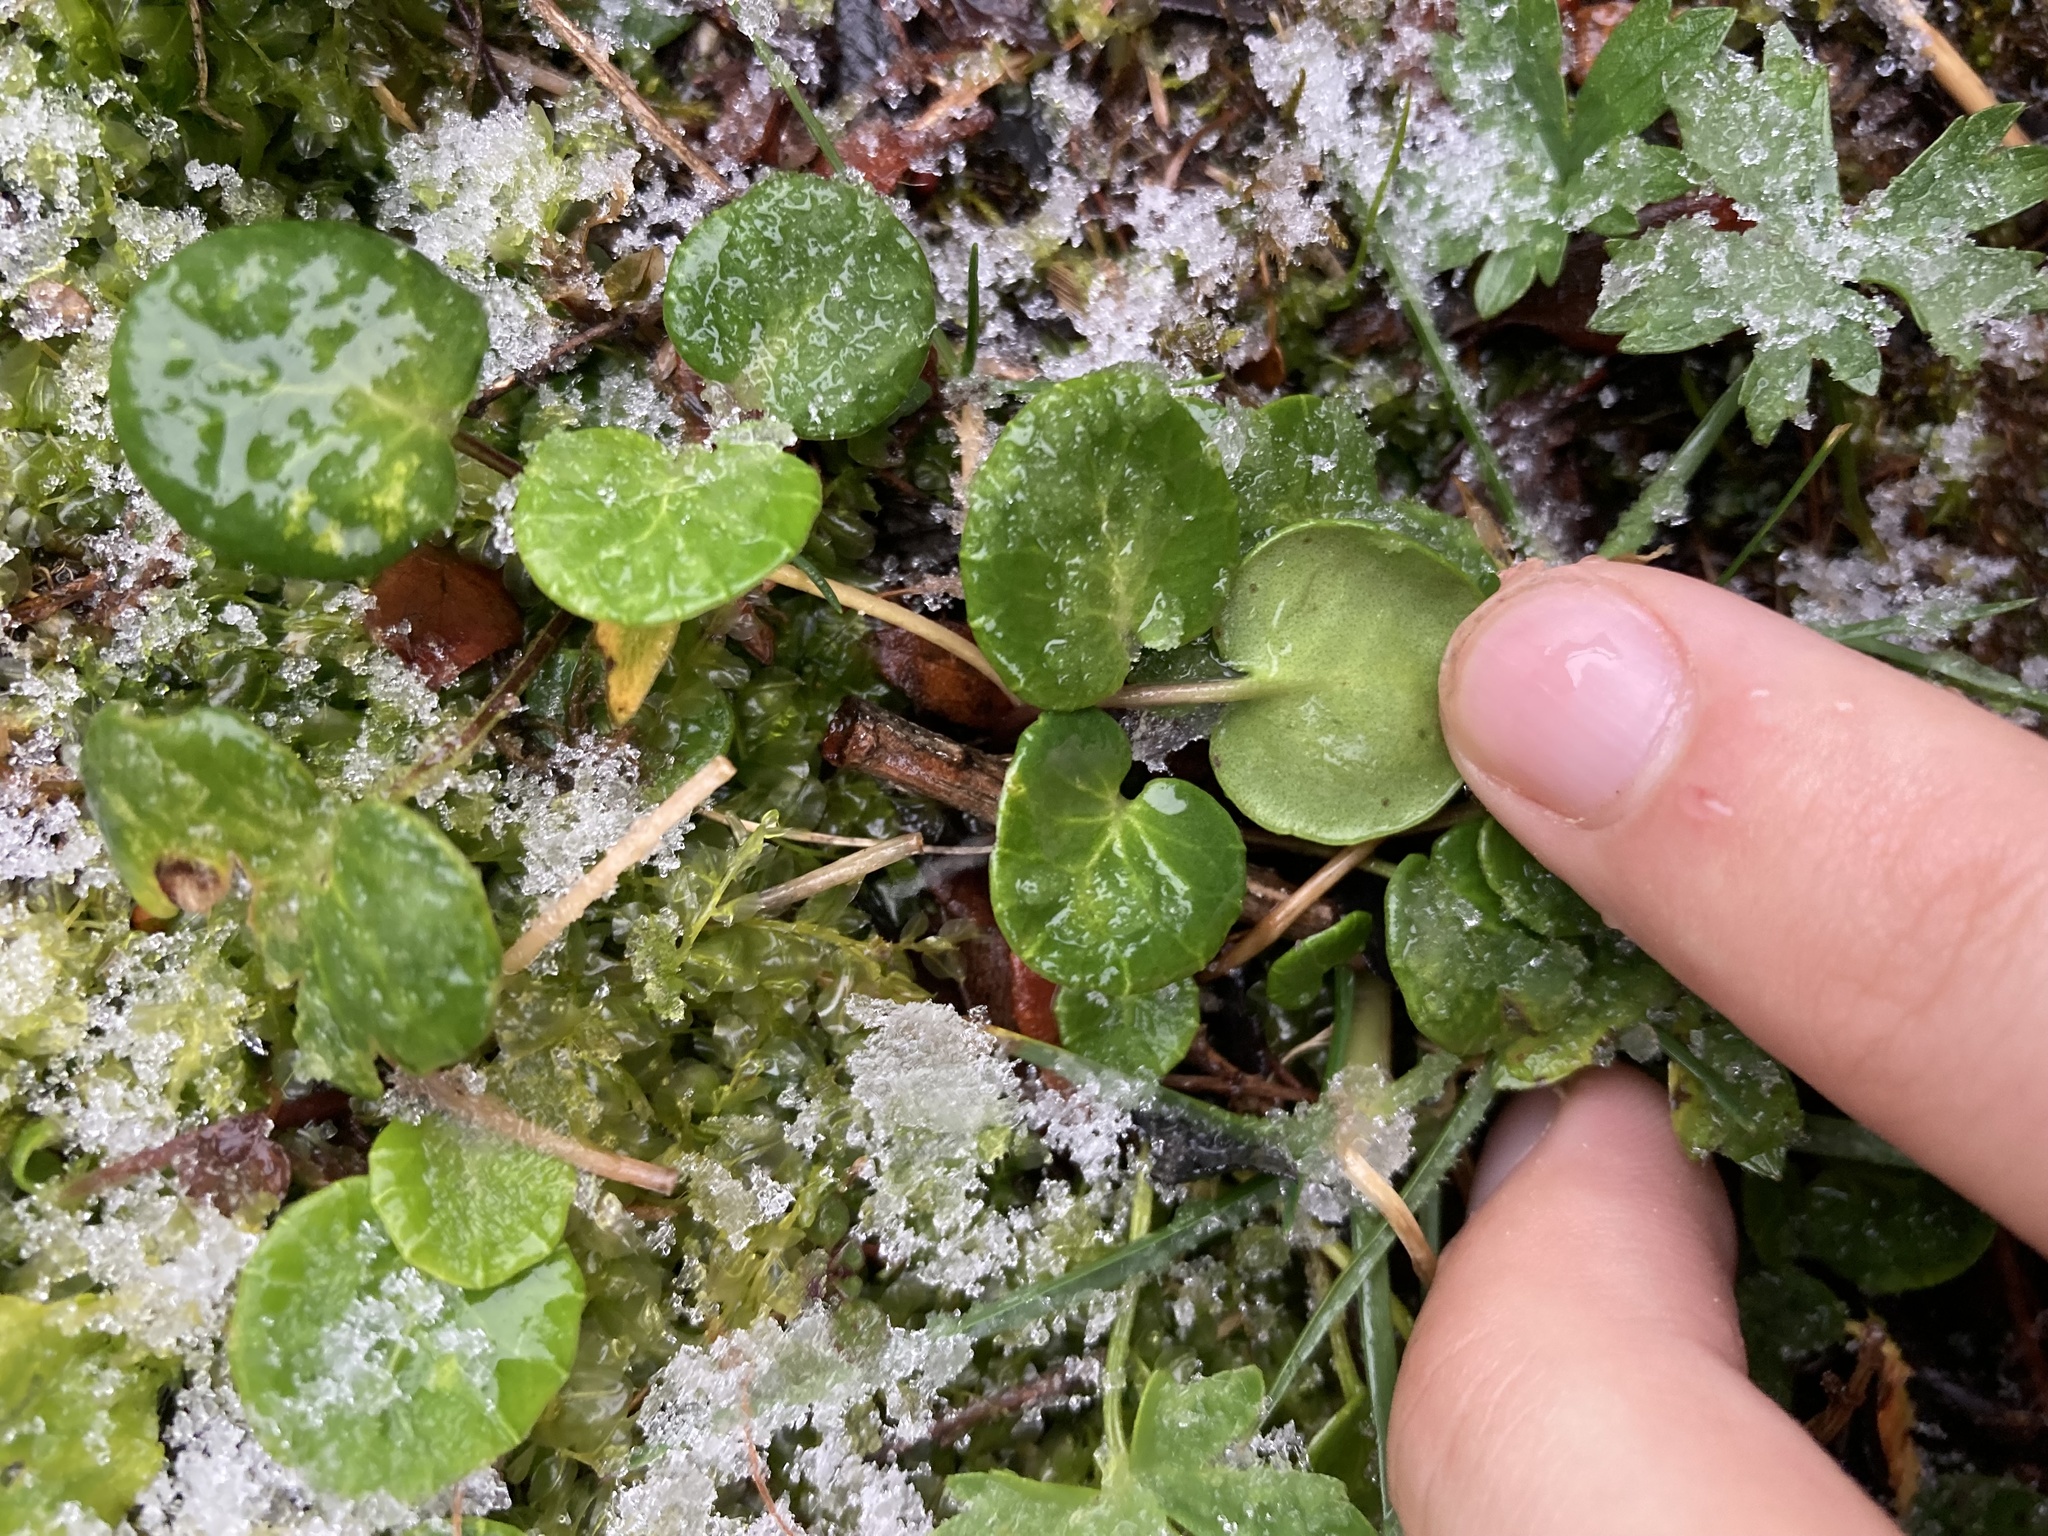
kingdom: Plantae
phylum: Tracheophyta
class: Magnoliopsida
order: Ericales
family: Primulaceae
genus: Soldanella
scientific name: Soldanella alpina
